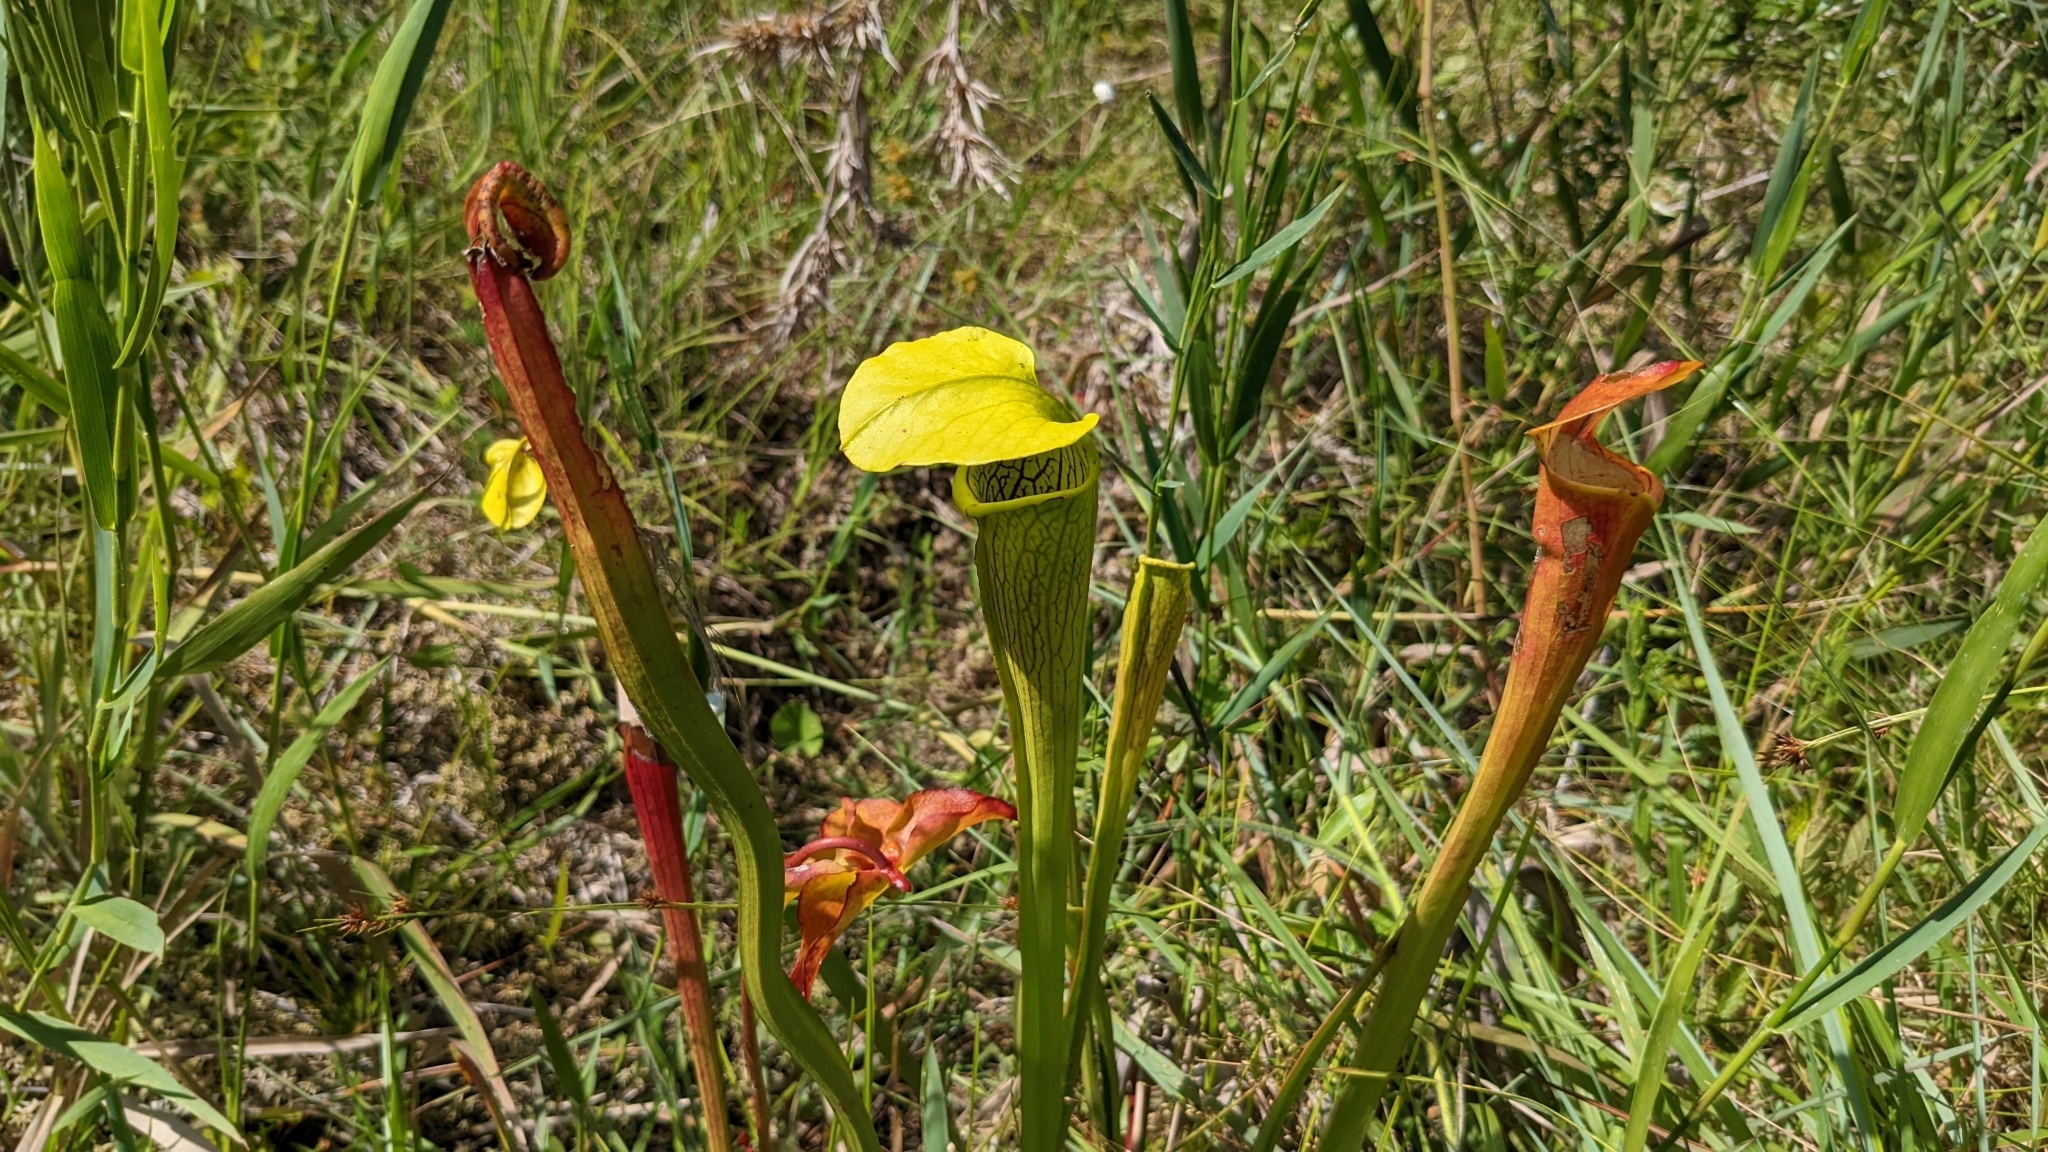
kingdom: Plantae
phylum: Tracheophyta
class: Magnoliopsida
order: Ericales
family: Sarraceniaceae
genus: Sarracenia
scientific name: Sarracenia alata
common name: Yellow trumpets
